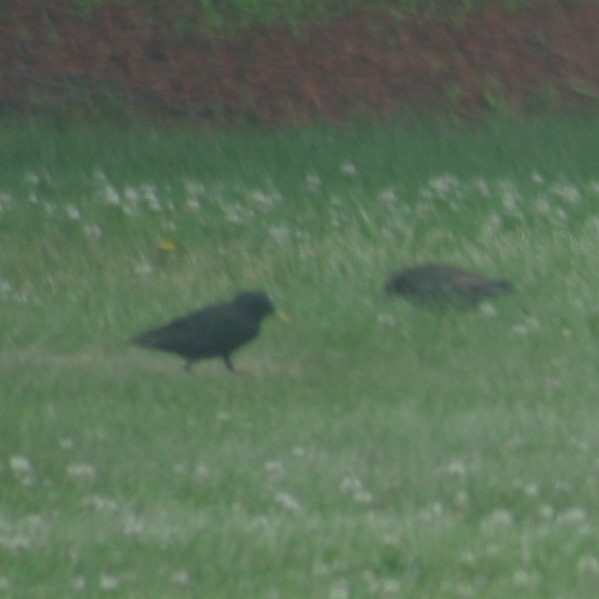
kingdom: Animalia
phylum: Chordata
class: Aves
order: Passeriformes
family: Sturnidae
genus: Sturnus
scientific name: Sturnus vulgaris
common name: Common starling
